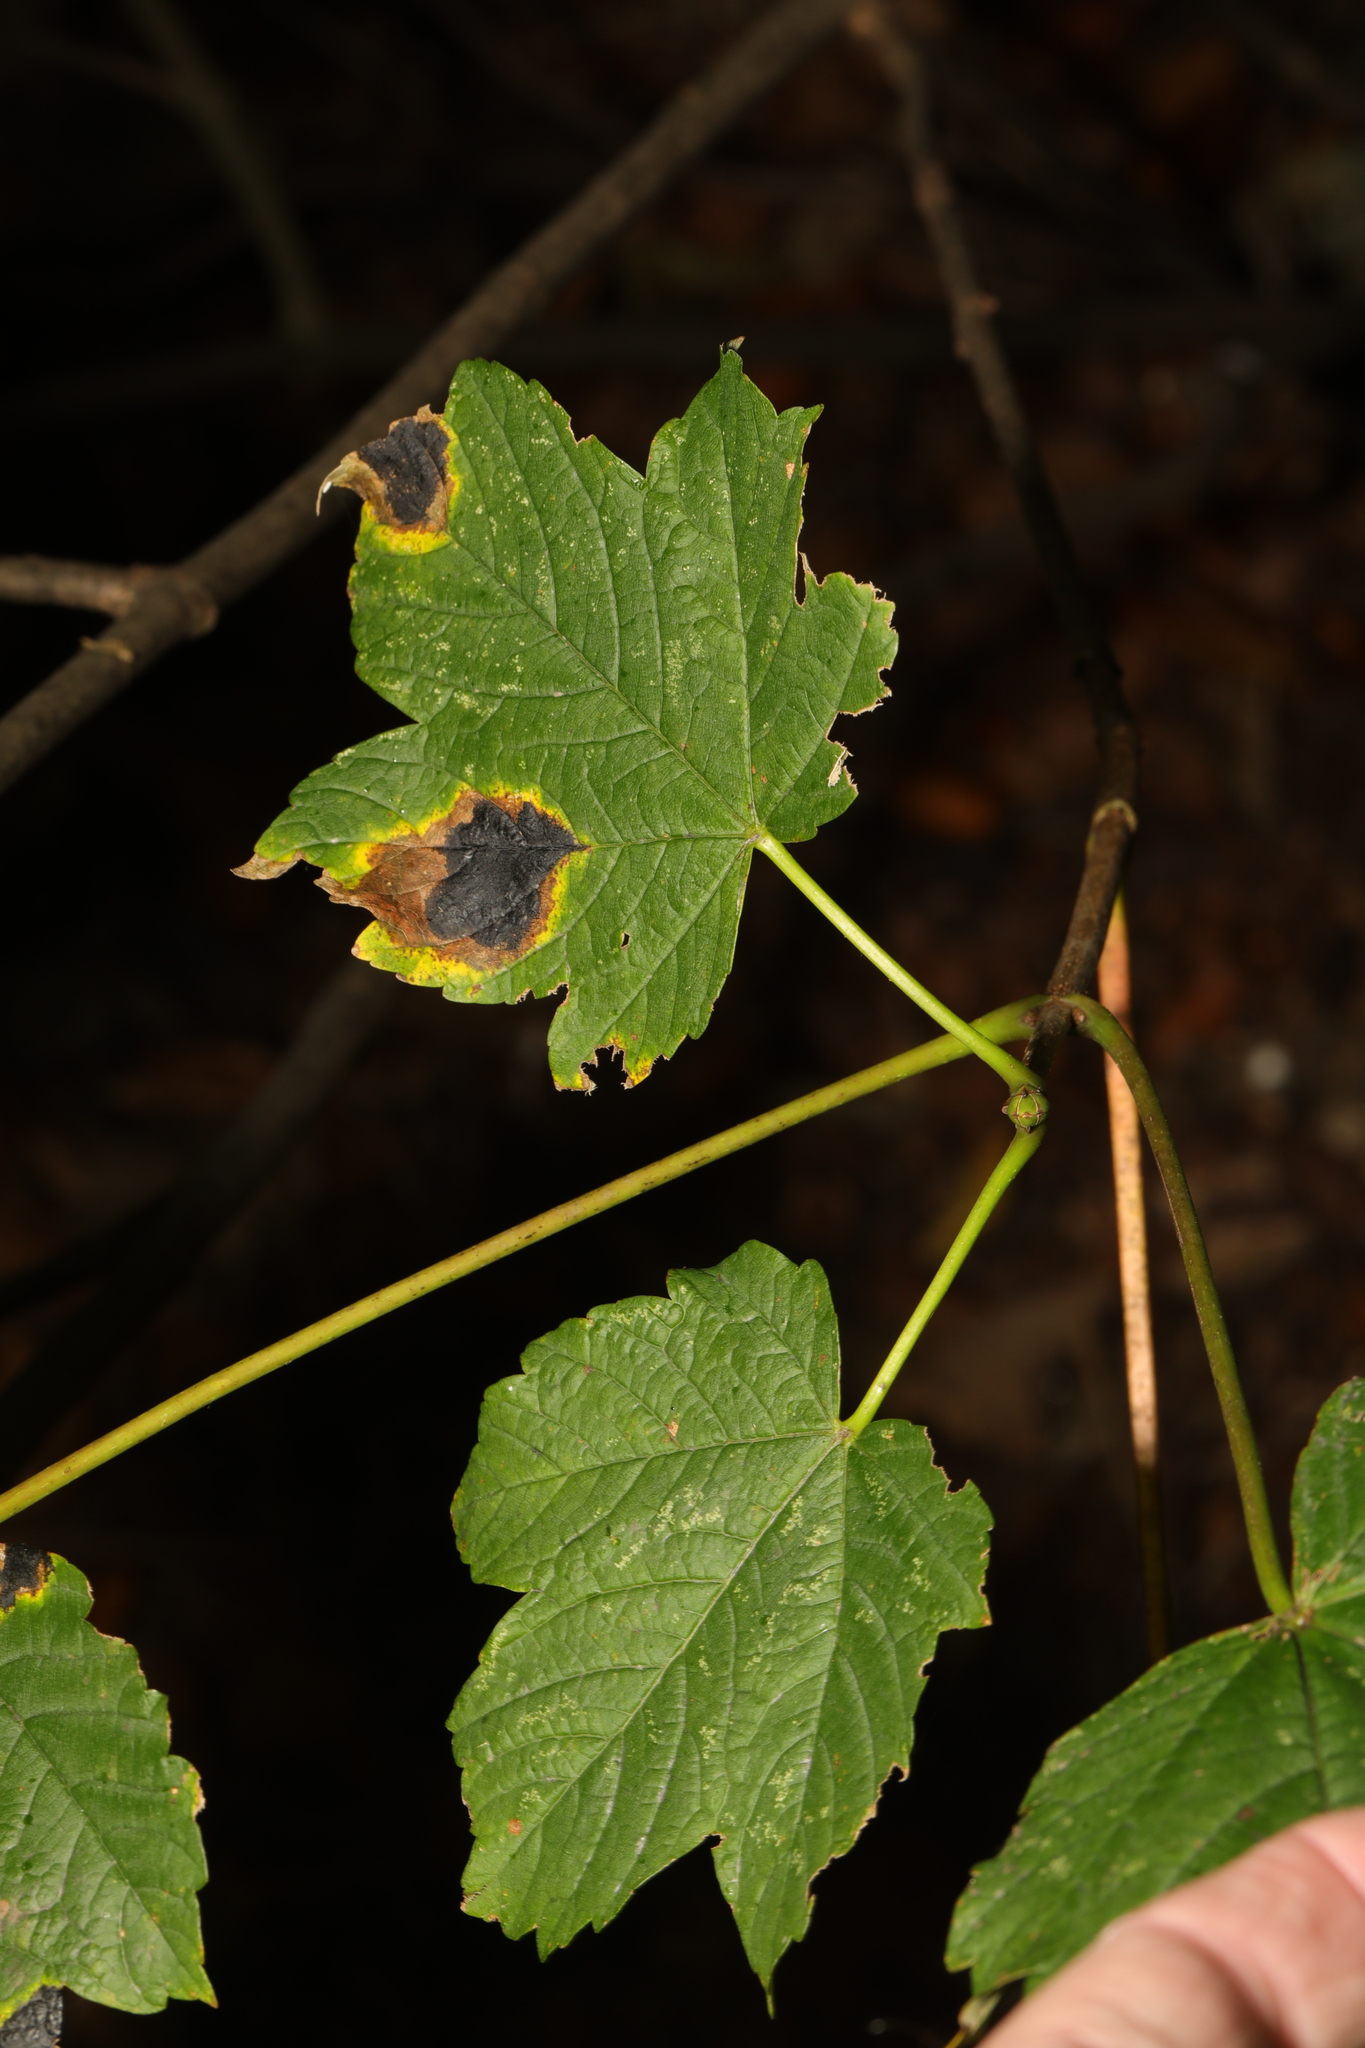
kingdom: Plantae
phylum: Tracheophyta
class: Magnoliopsida
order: Sapindales
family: Sapindaceae
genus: Acer
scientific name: Acer pseudoplatanus
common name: Sycamore
